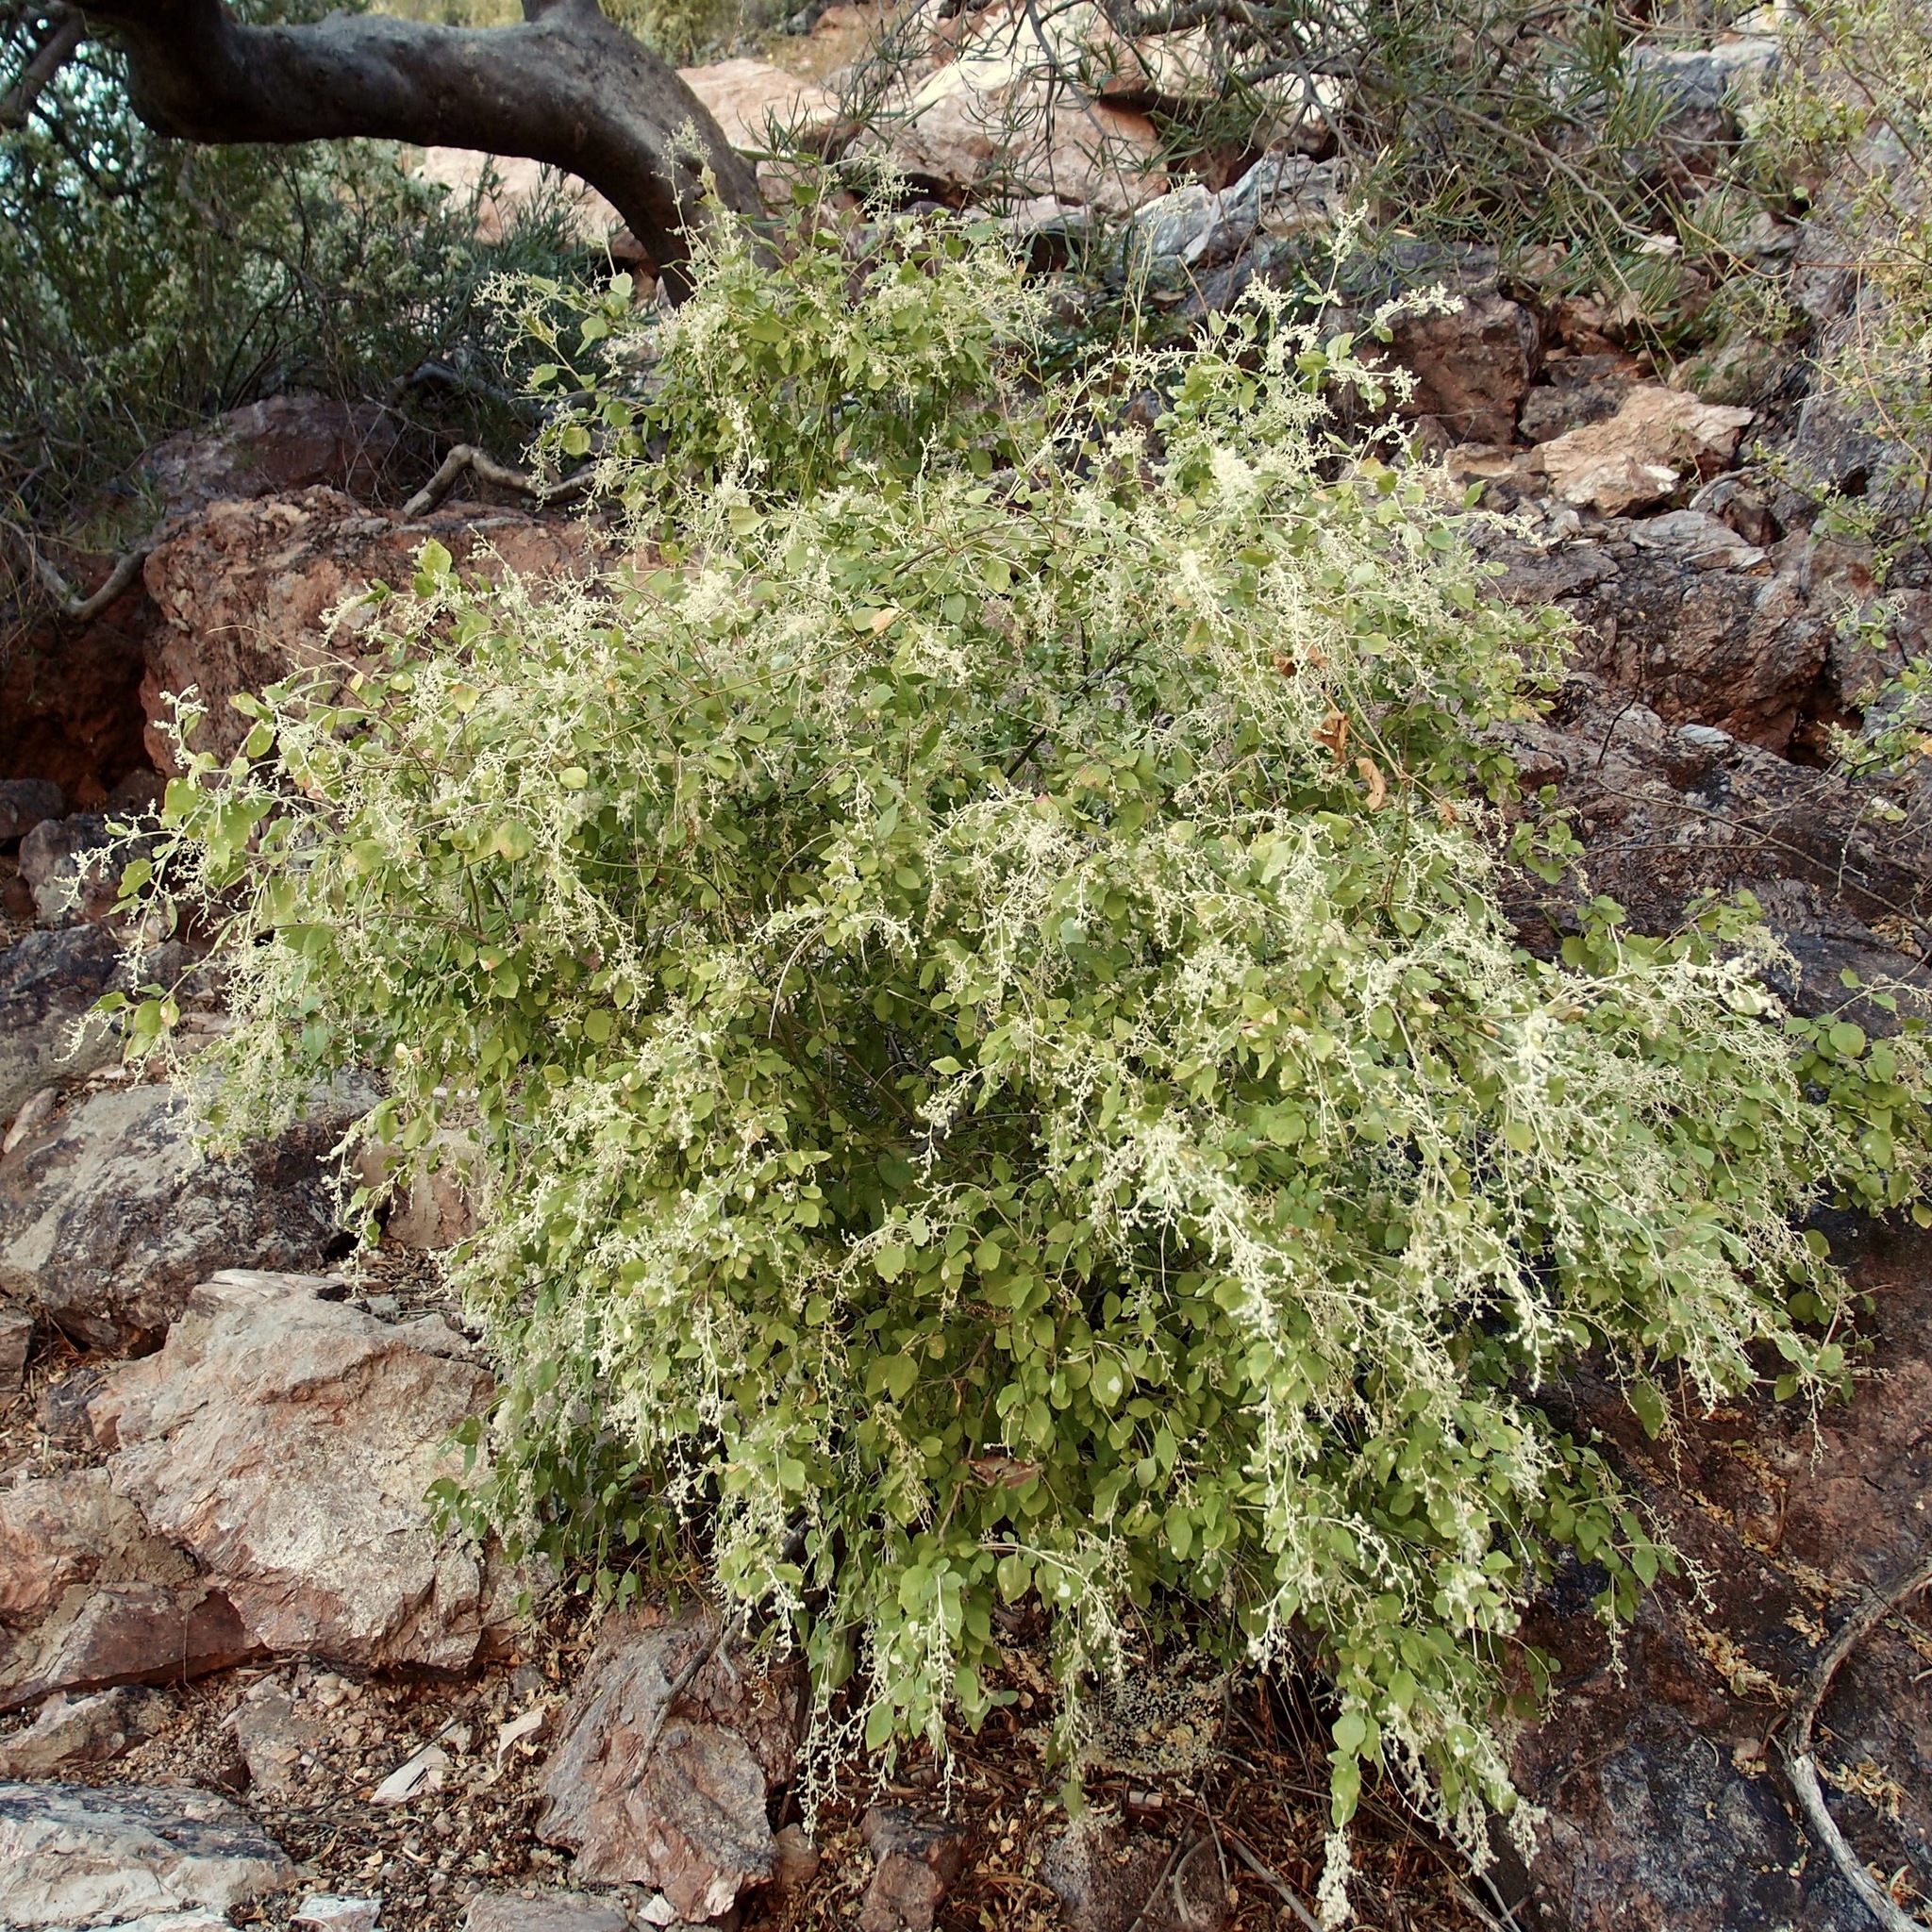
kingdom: Plantae
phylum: Tracheophyta
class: Magnoliopsida
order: Caryophyllales
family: Amaranthaceae
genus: Iresine
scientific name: Iresine alternifolia
